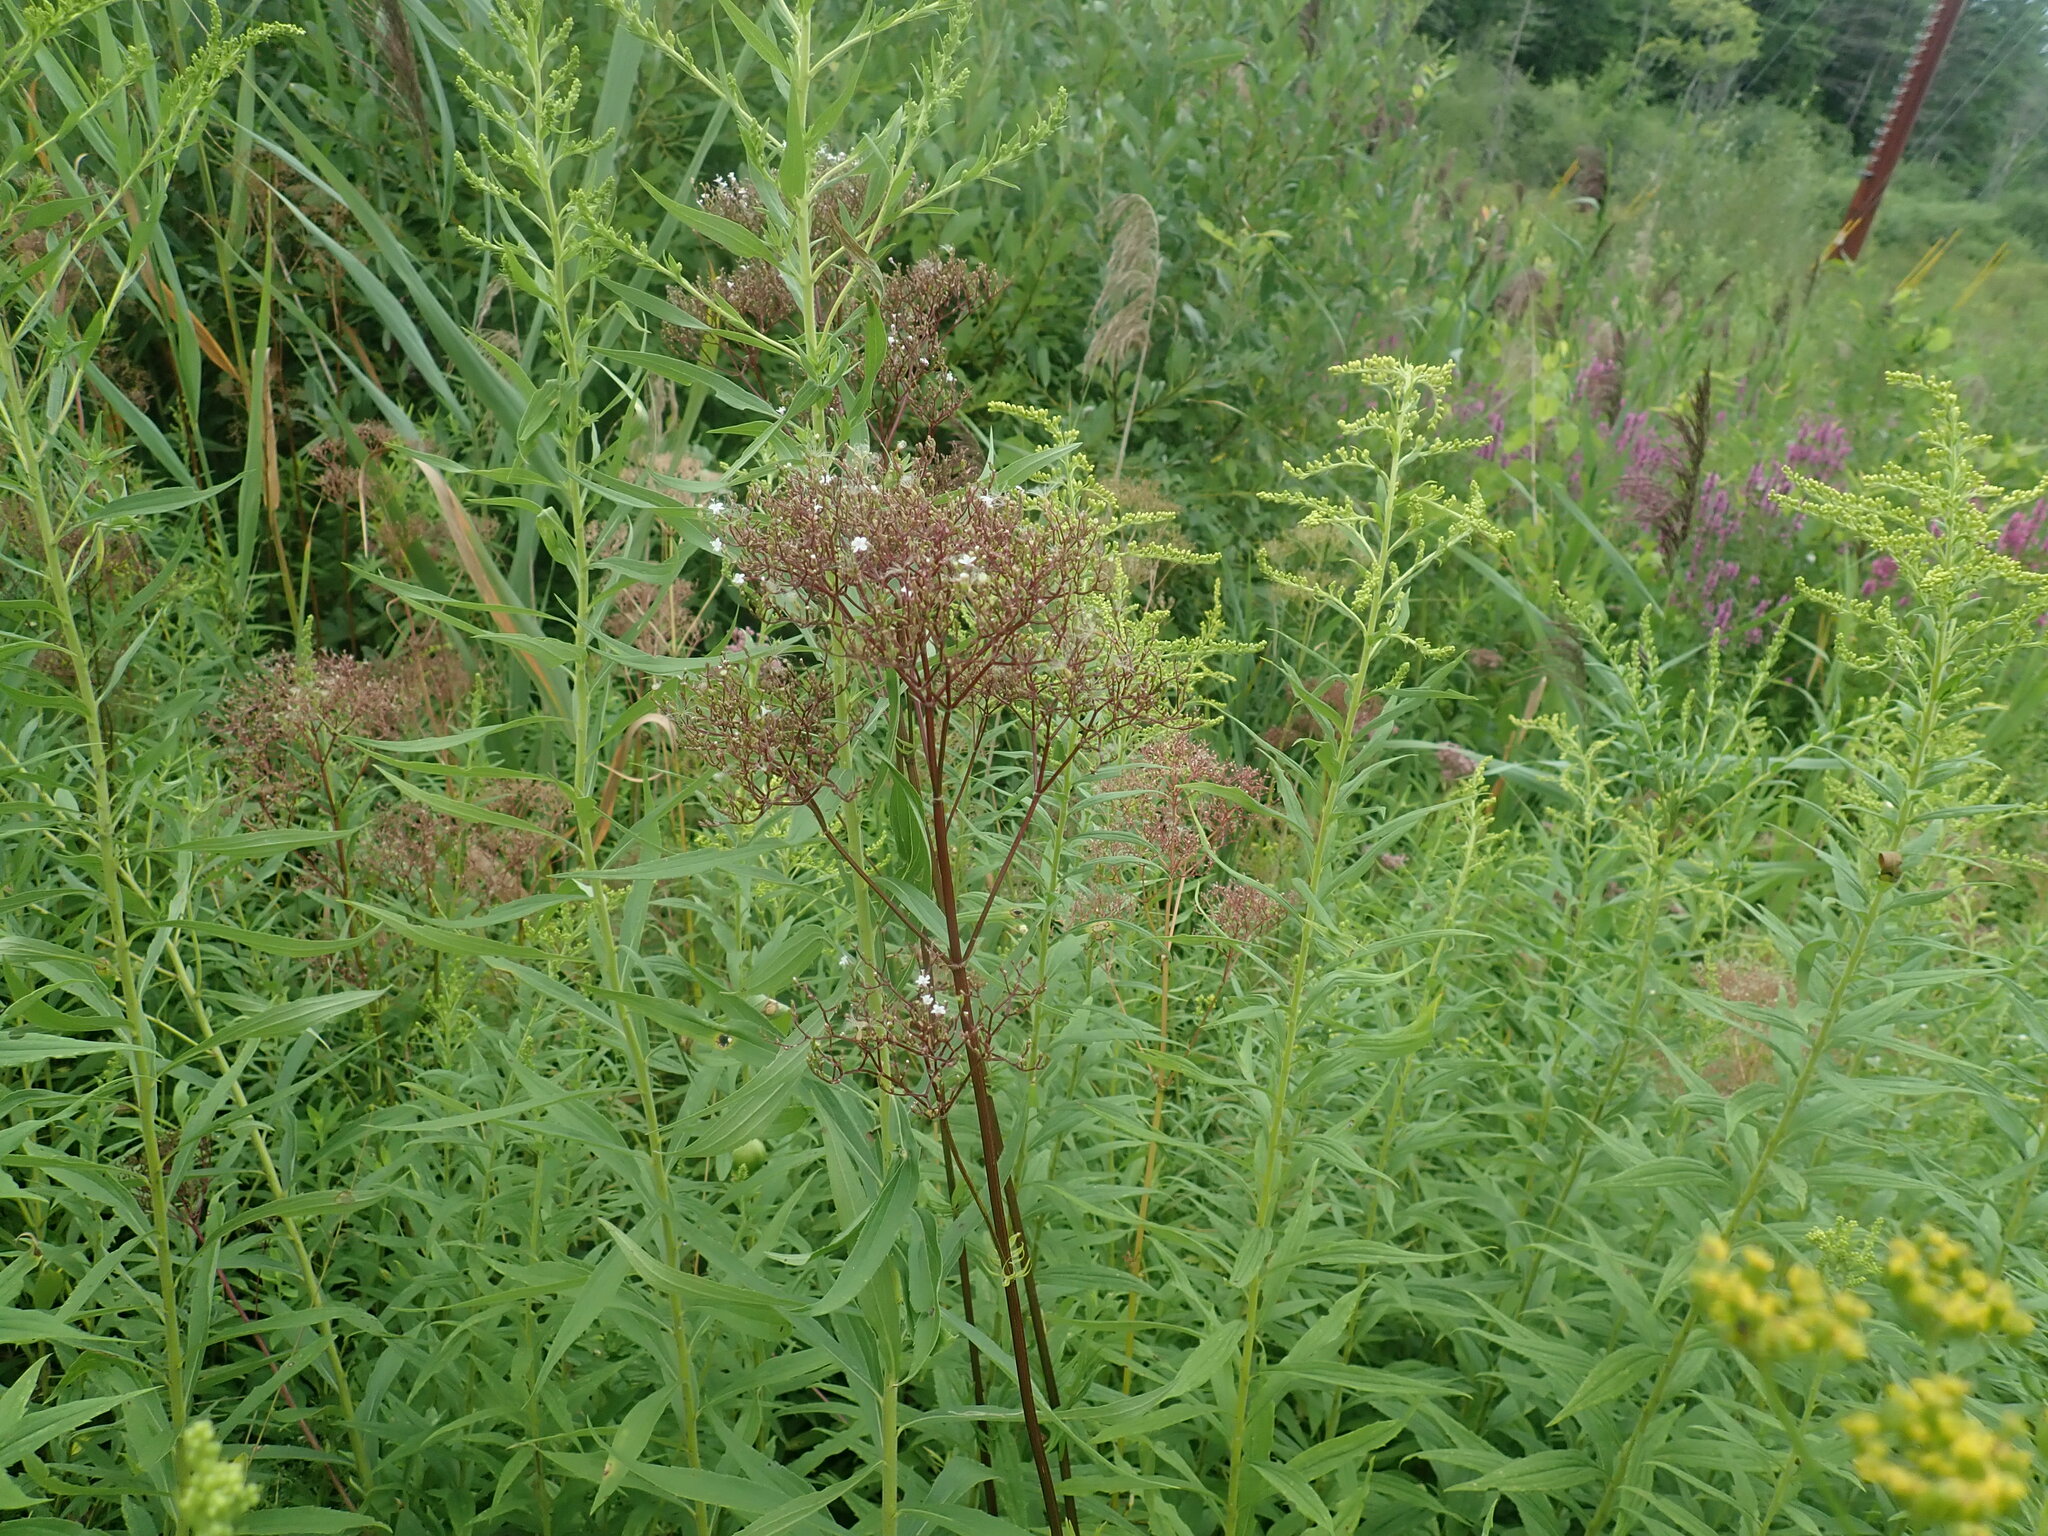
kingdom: Plantae
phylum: Tracheophyta
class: Magnoliopsida
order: Dipsacales
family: Caprifoliaceae
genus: Valeriana
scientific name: Valeriana officinalis
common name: Common valerian
